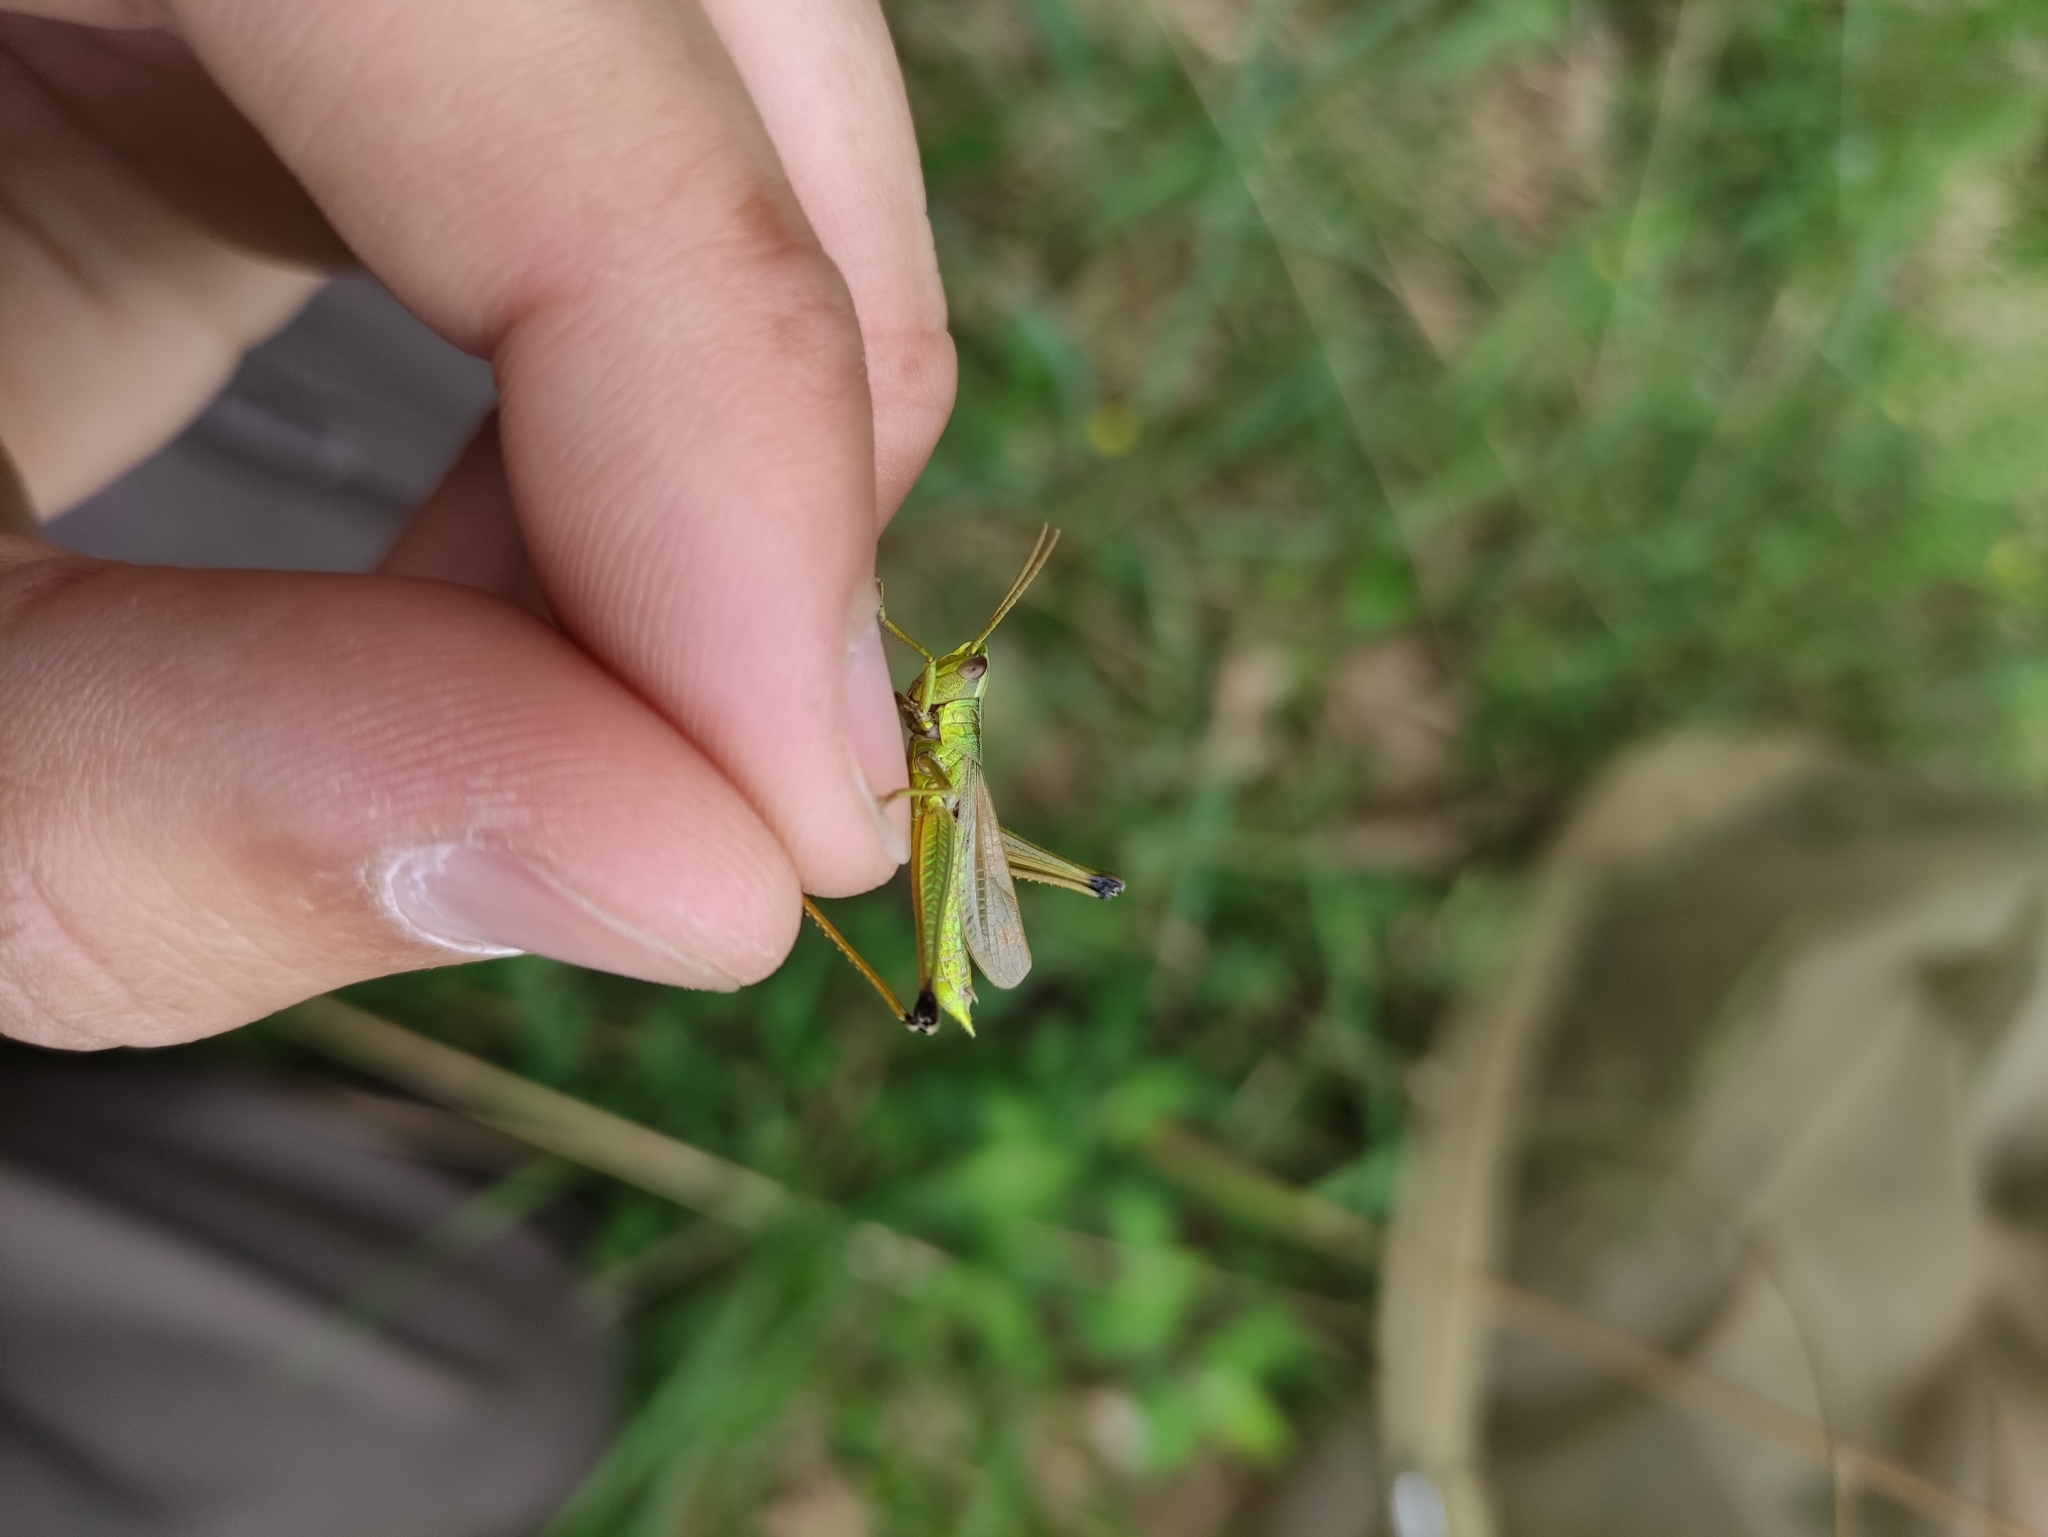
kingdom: Animalia
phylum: Arthropoda
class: Insecta
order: Orthoptera
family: Acrididae
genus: Chrysochraon
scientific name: Chrysochraon dispar
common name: Large gold grasshopper
